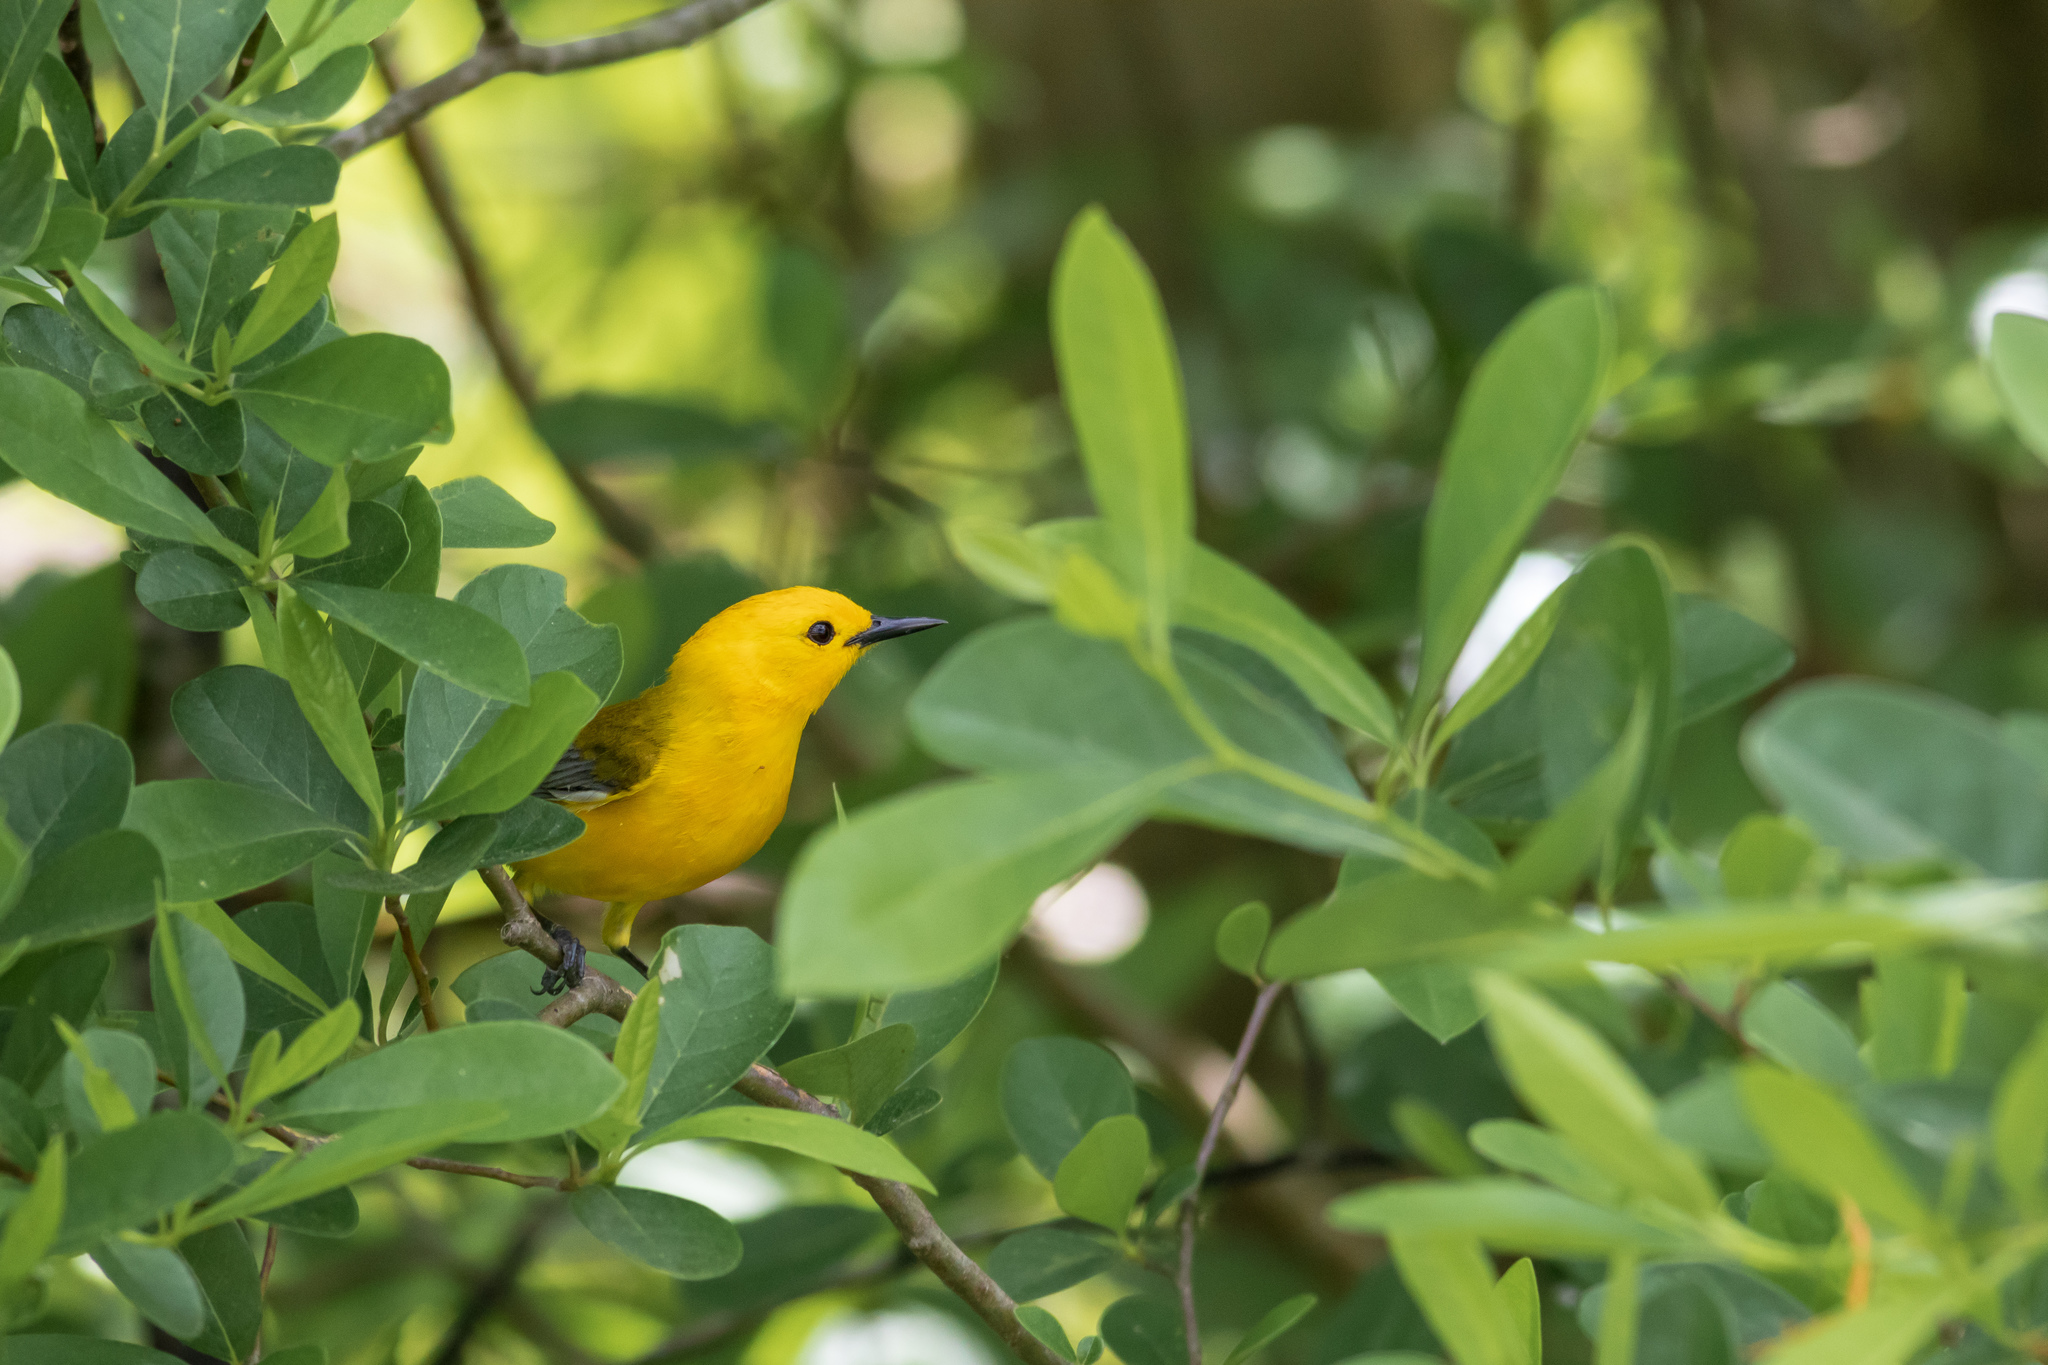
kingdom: Animalia
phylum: Chordata
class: Aves
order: Passeriformes
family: Parulidae
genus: Protonotaria
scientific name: Protonotaria citrea
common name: Prothonotary warbler
